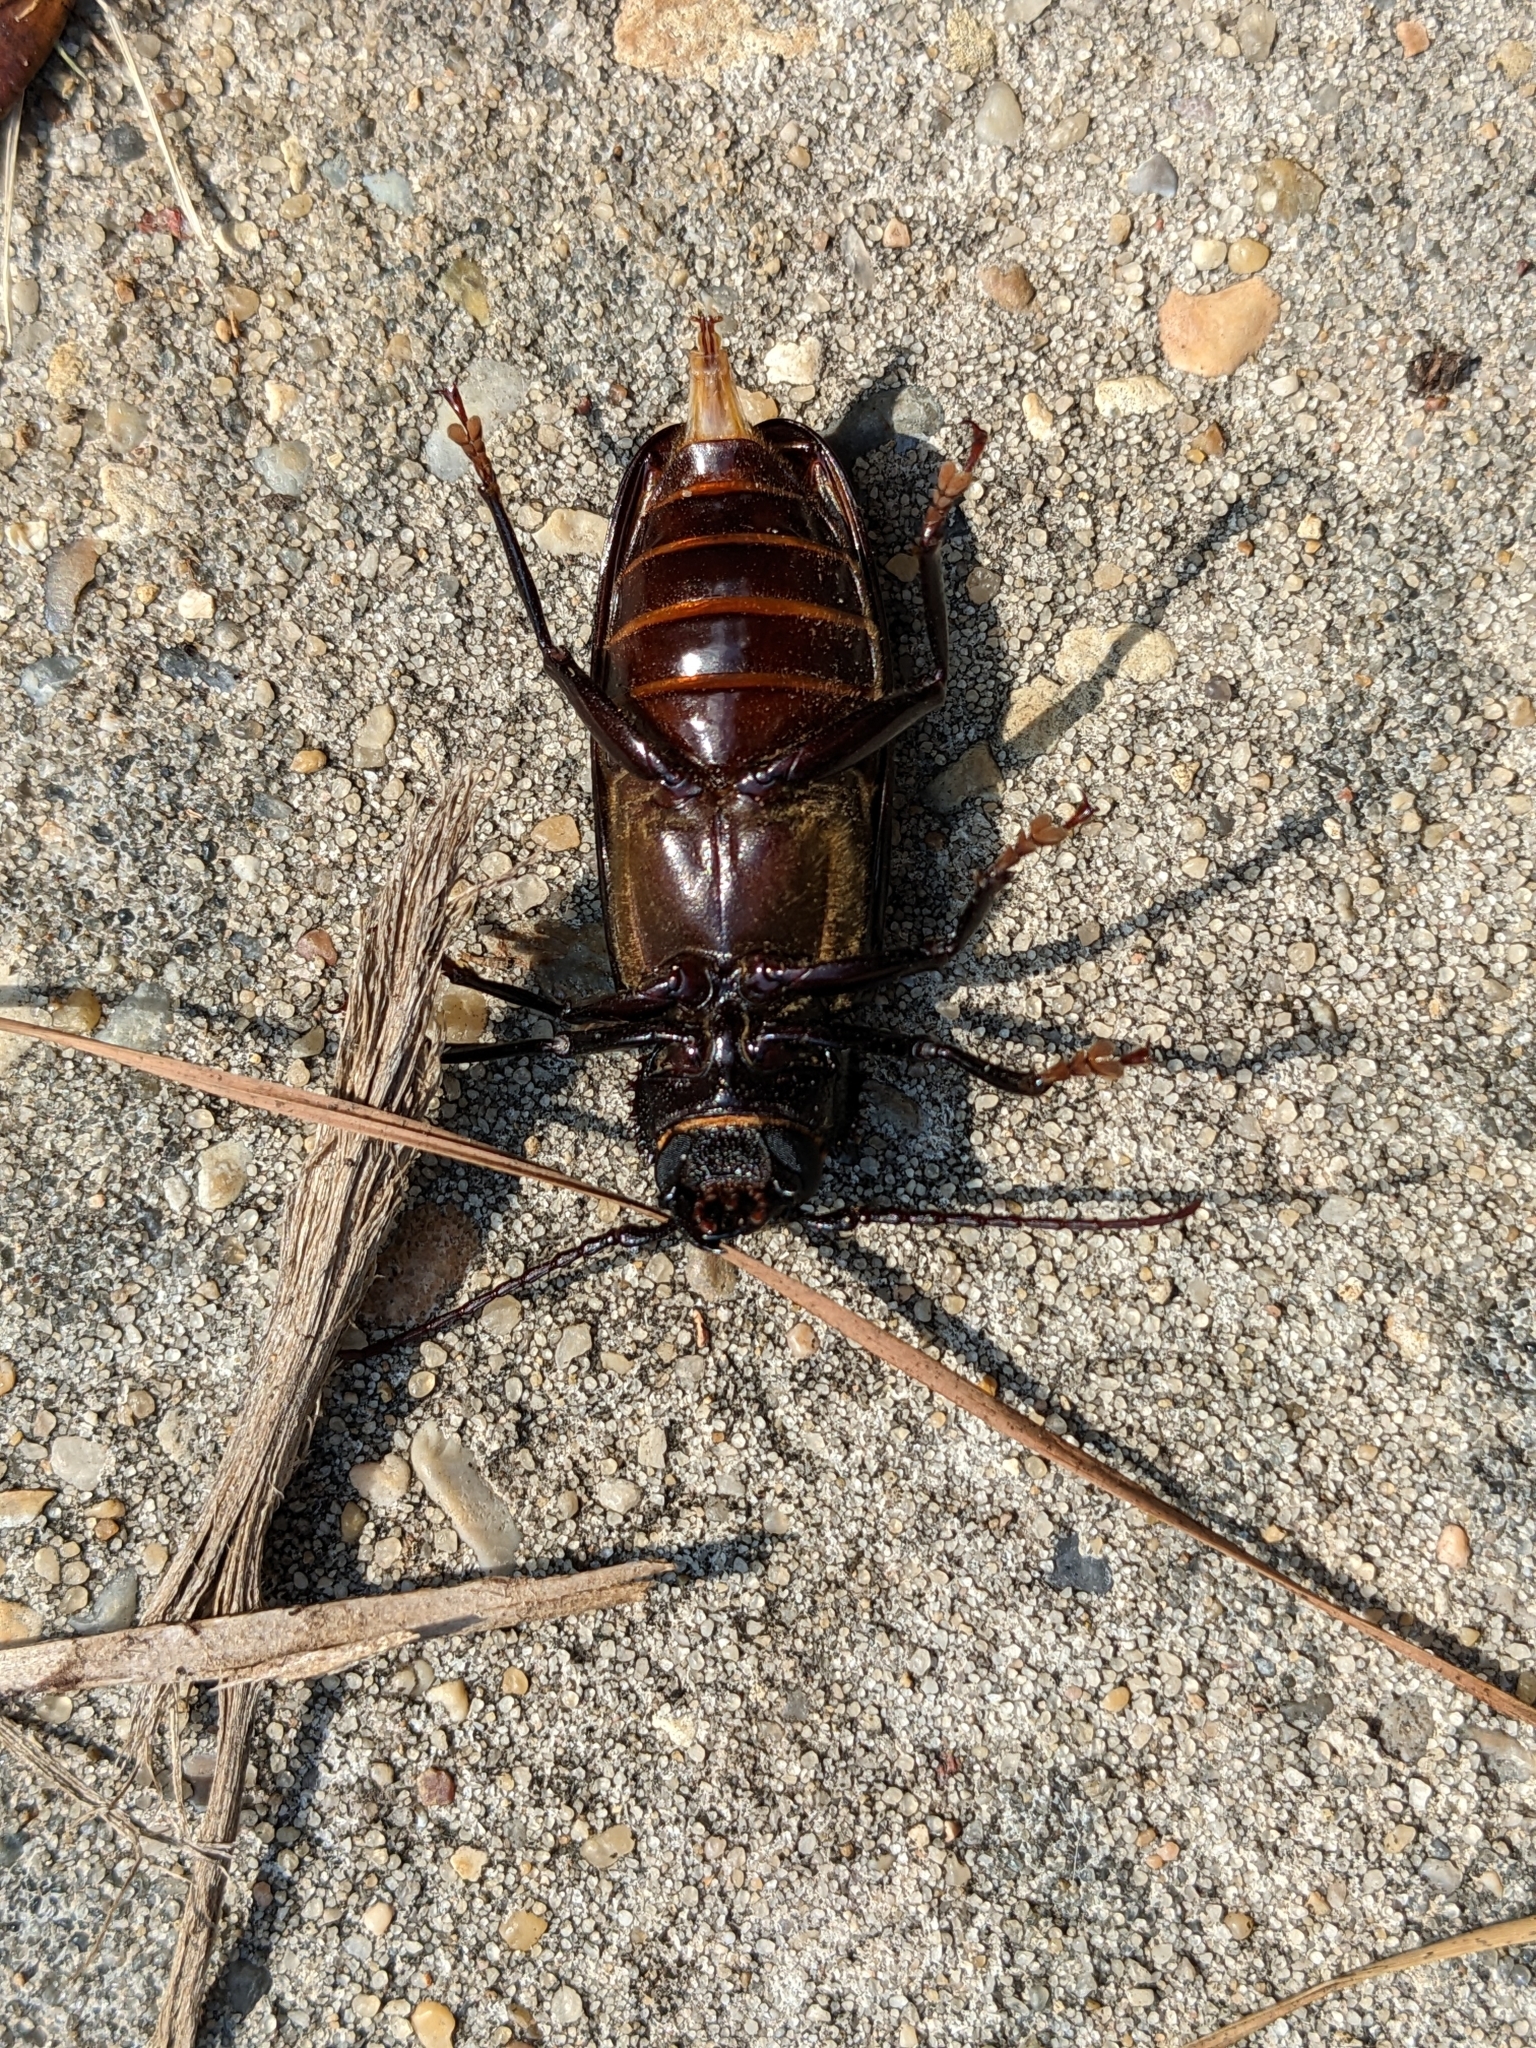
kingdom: Animalia
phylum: Arthropoda
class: Insecta
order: Coleoptera
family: Cerambycidae
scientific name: Cerambycidae
